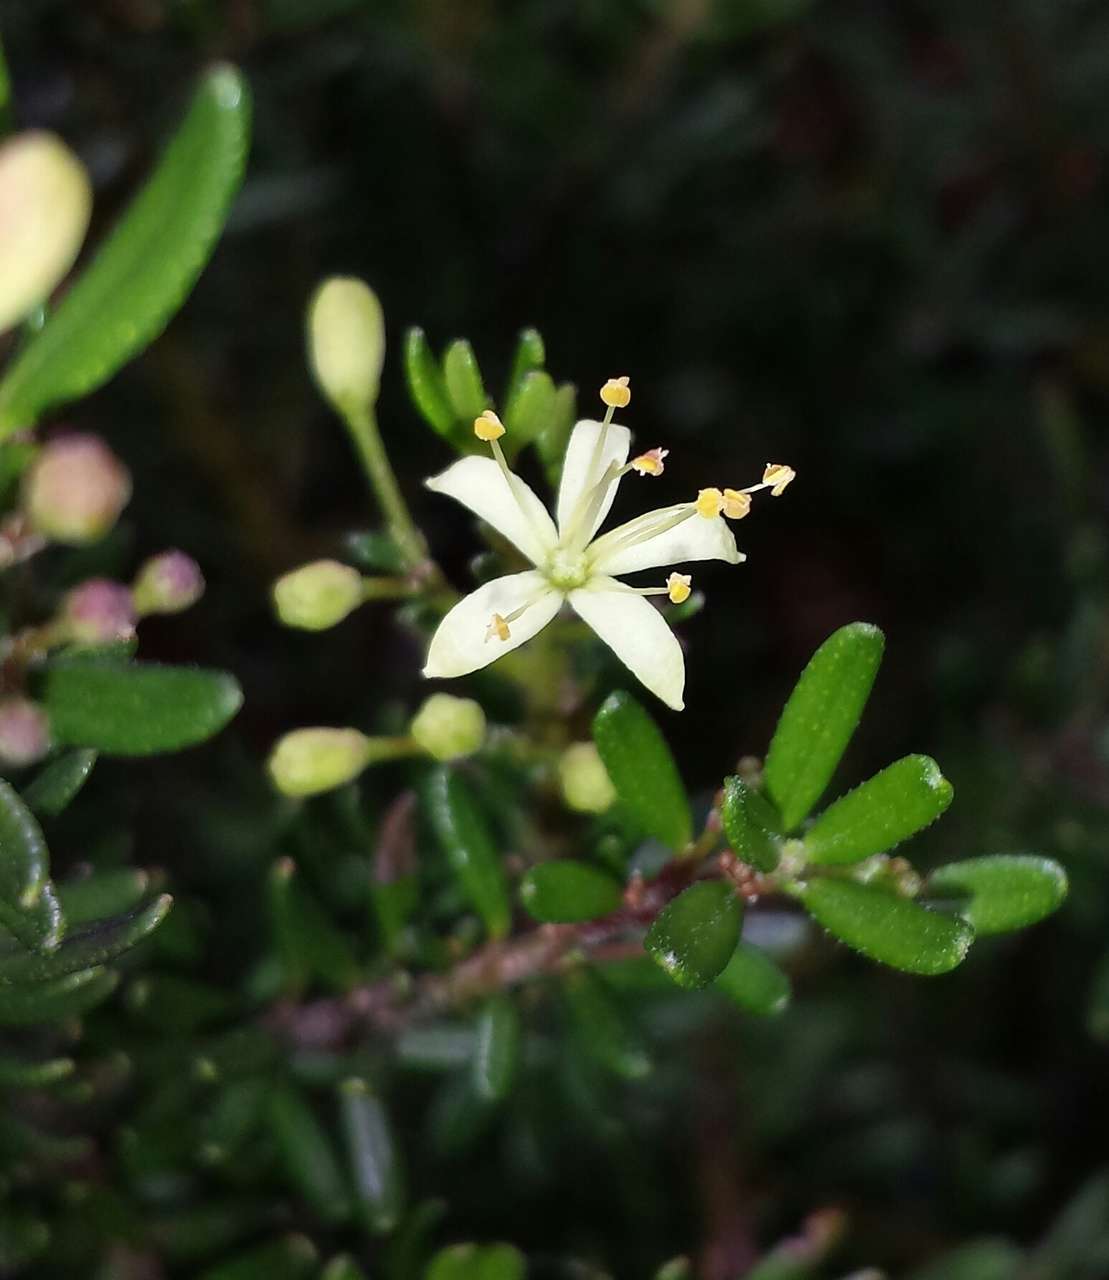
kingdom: Plantae
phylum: Tracheophyta
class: Magnoliopsida
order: Sapindales
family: Rutaceae
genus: Leionema
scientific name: Leionema phylicifolium
